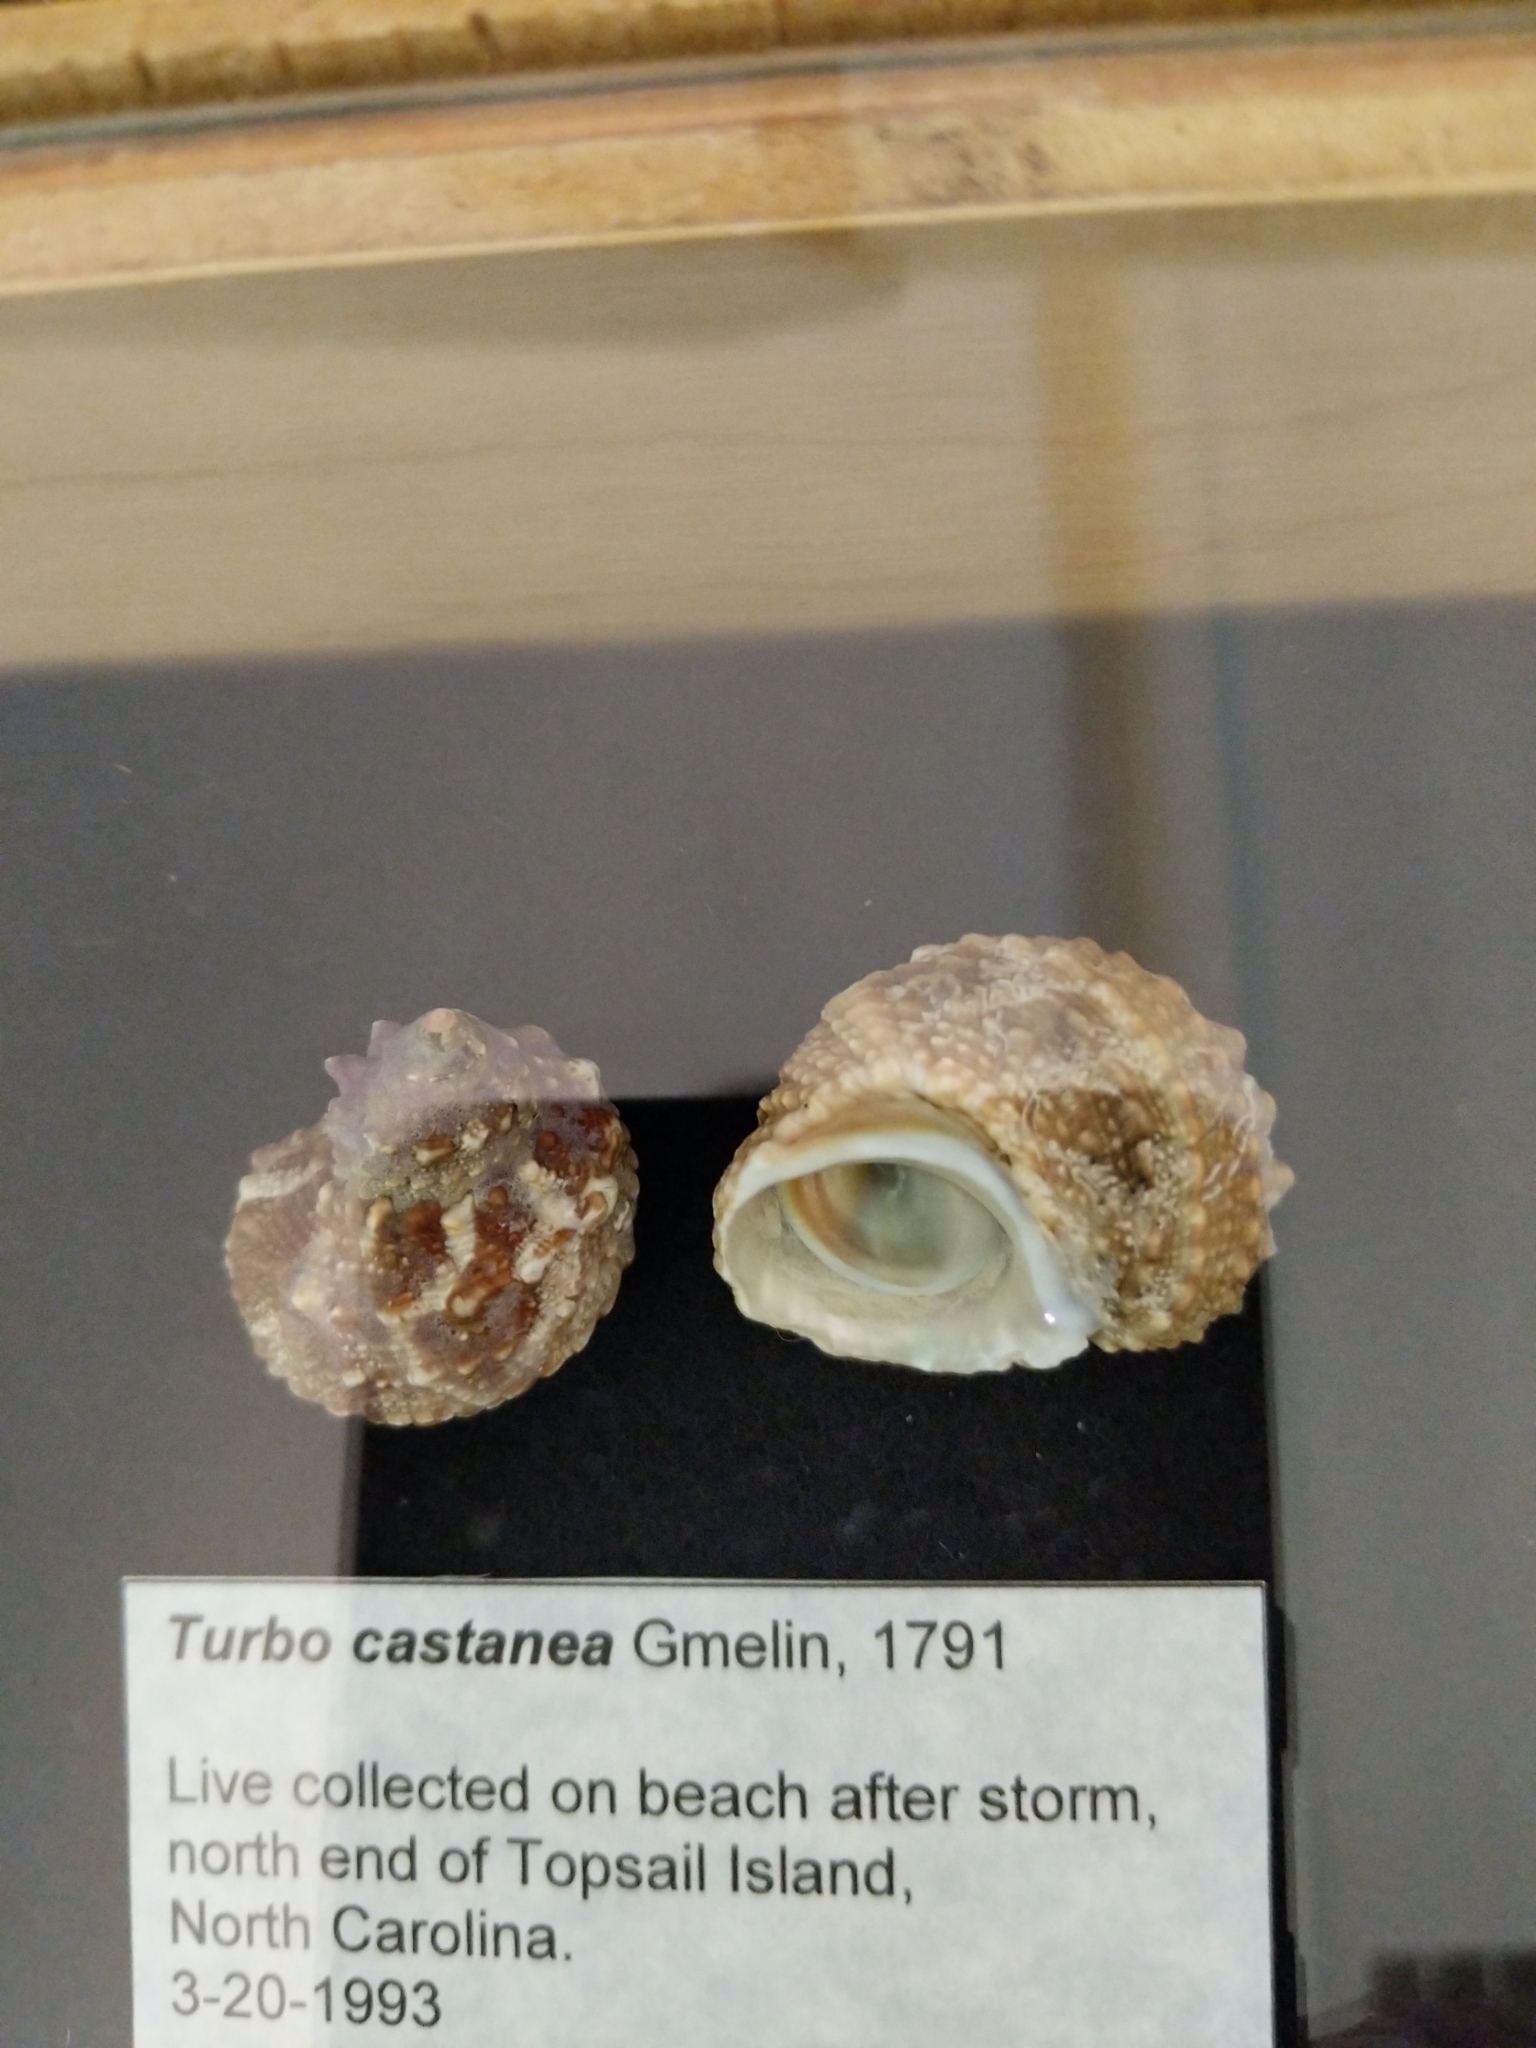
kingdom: Animalia
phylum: Mollusca
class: Gastropoda
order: Trochida
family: Turbinidae
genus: Turbo
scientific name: Turbo castanea
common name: Chestnut turban
